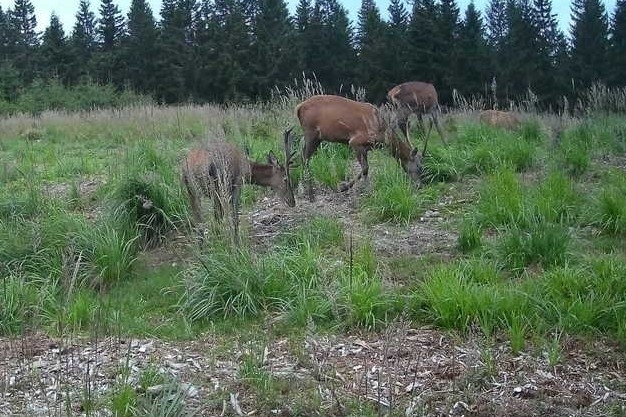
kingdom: Animalia
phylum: Chordata
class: Mammalia
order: Artiodactyla
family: Cervidae
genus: Cervus
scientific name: Cervus elaphus
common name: Red deer
